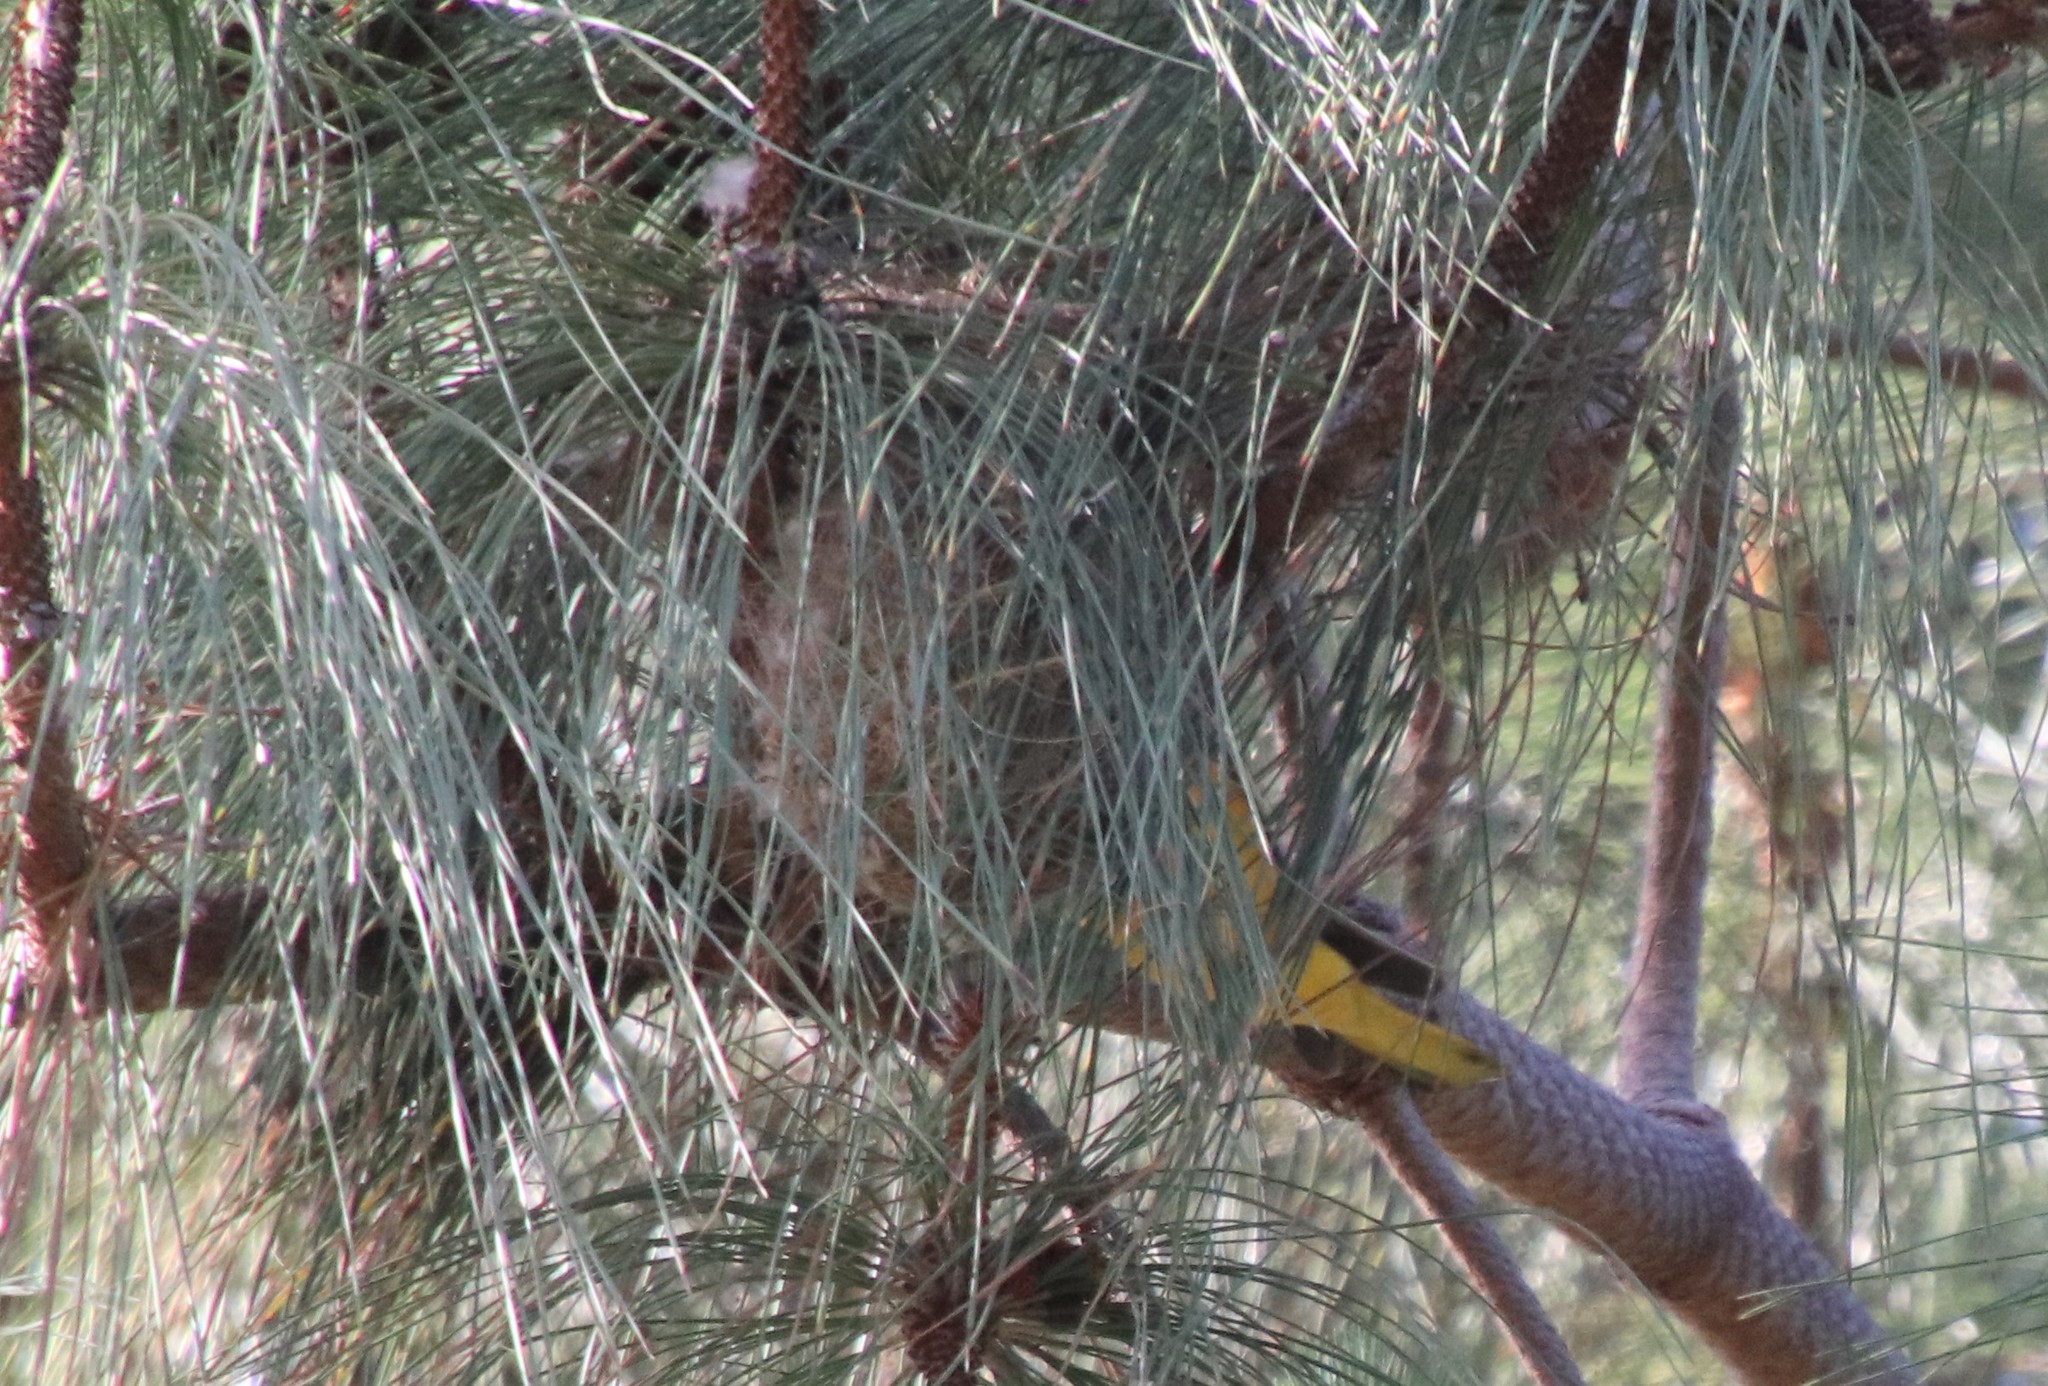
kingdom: Animalia
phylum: Chordata
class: Aves
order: Passeriformes
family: Icteridae
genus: Icterus
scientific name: Icterus bullockii
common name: Bullock's oriole
